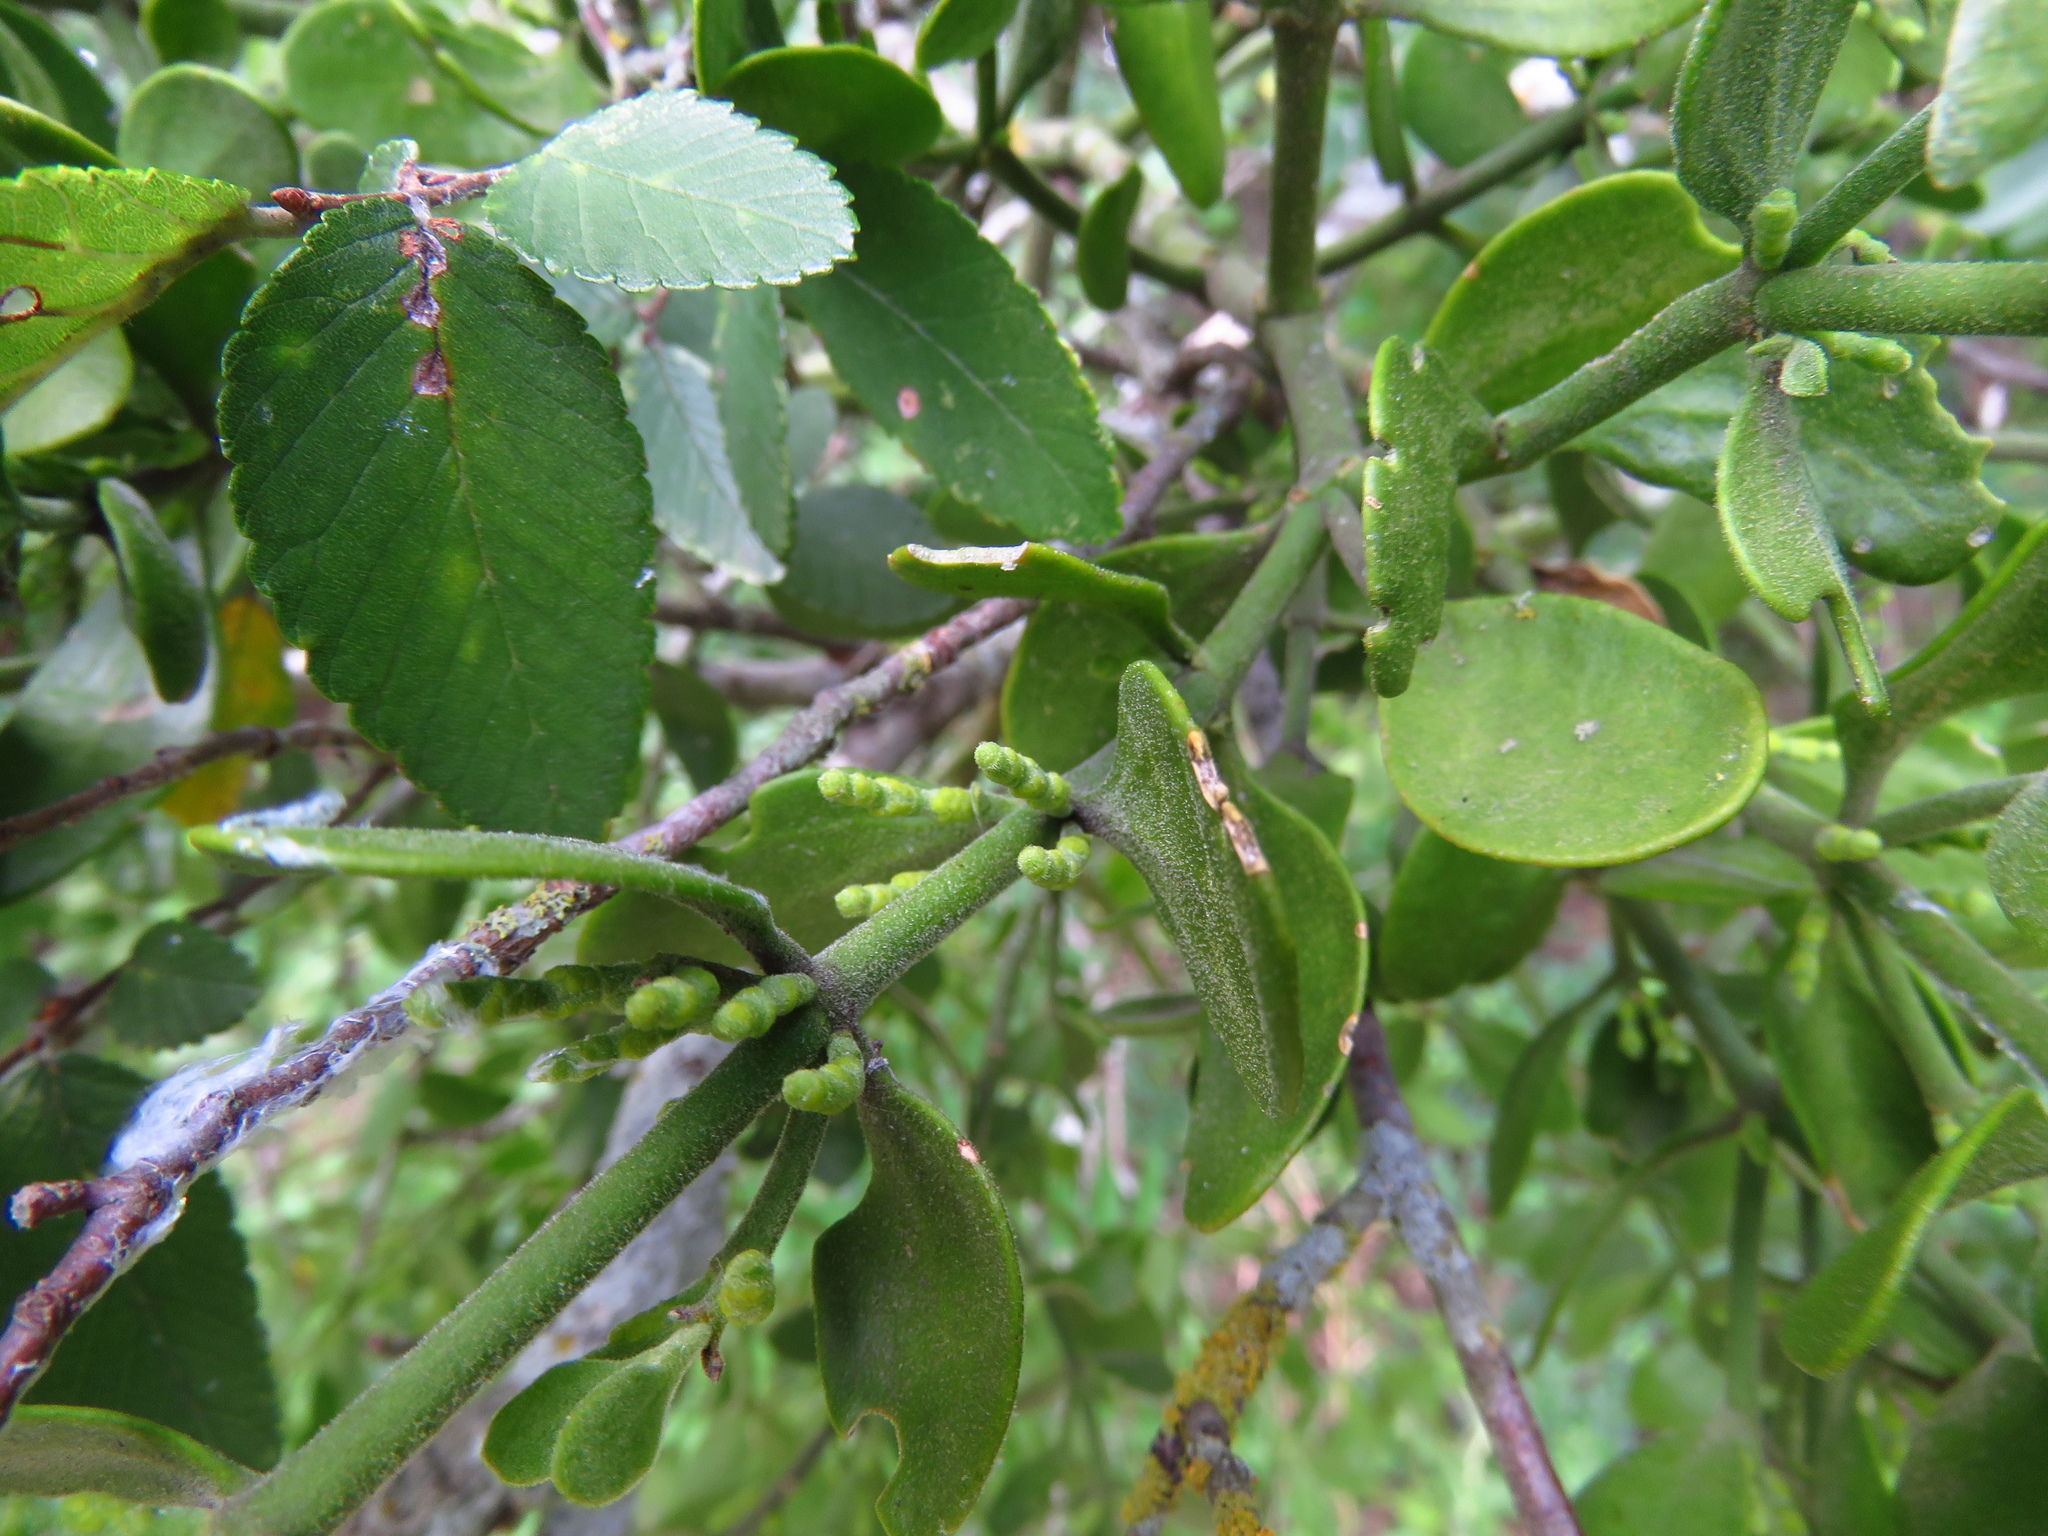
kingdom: Plantae
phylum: Tracheophyta
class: Magnoliopsida
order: Santalales
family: Viscaceae
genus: Phoradendron
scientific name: Phoradendron leucarpum
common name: Pacific mistletoe
